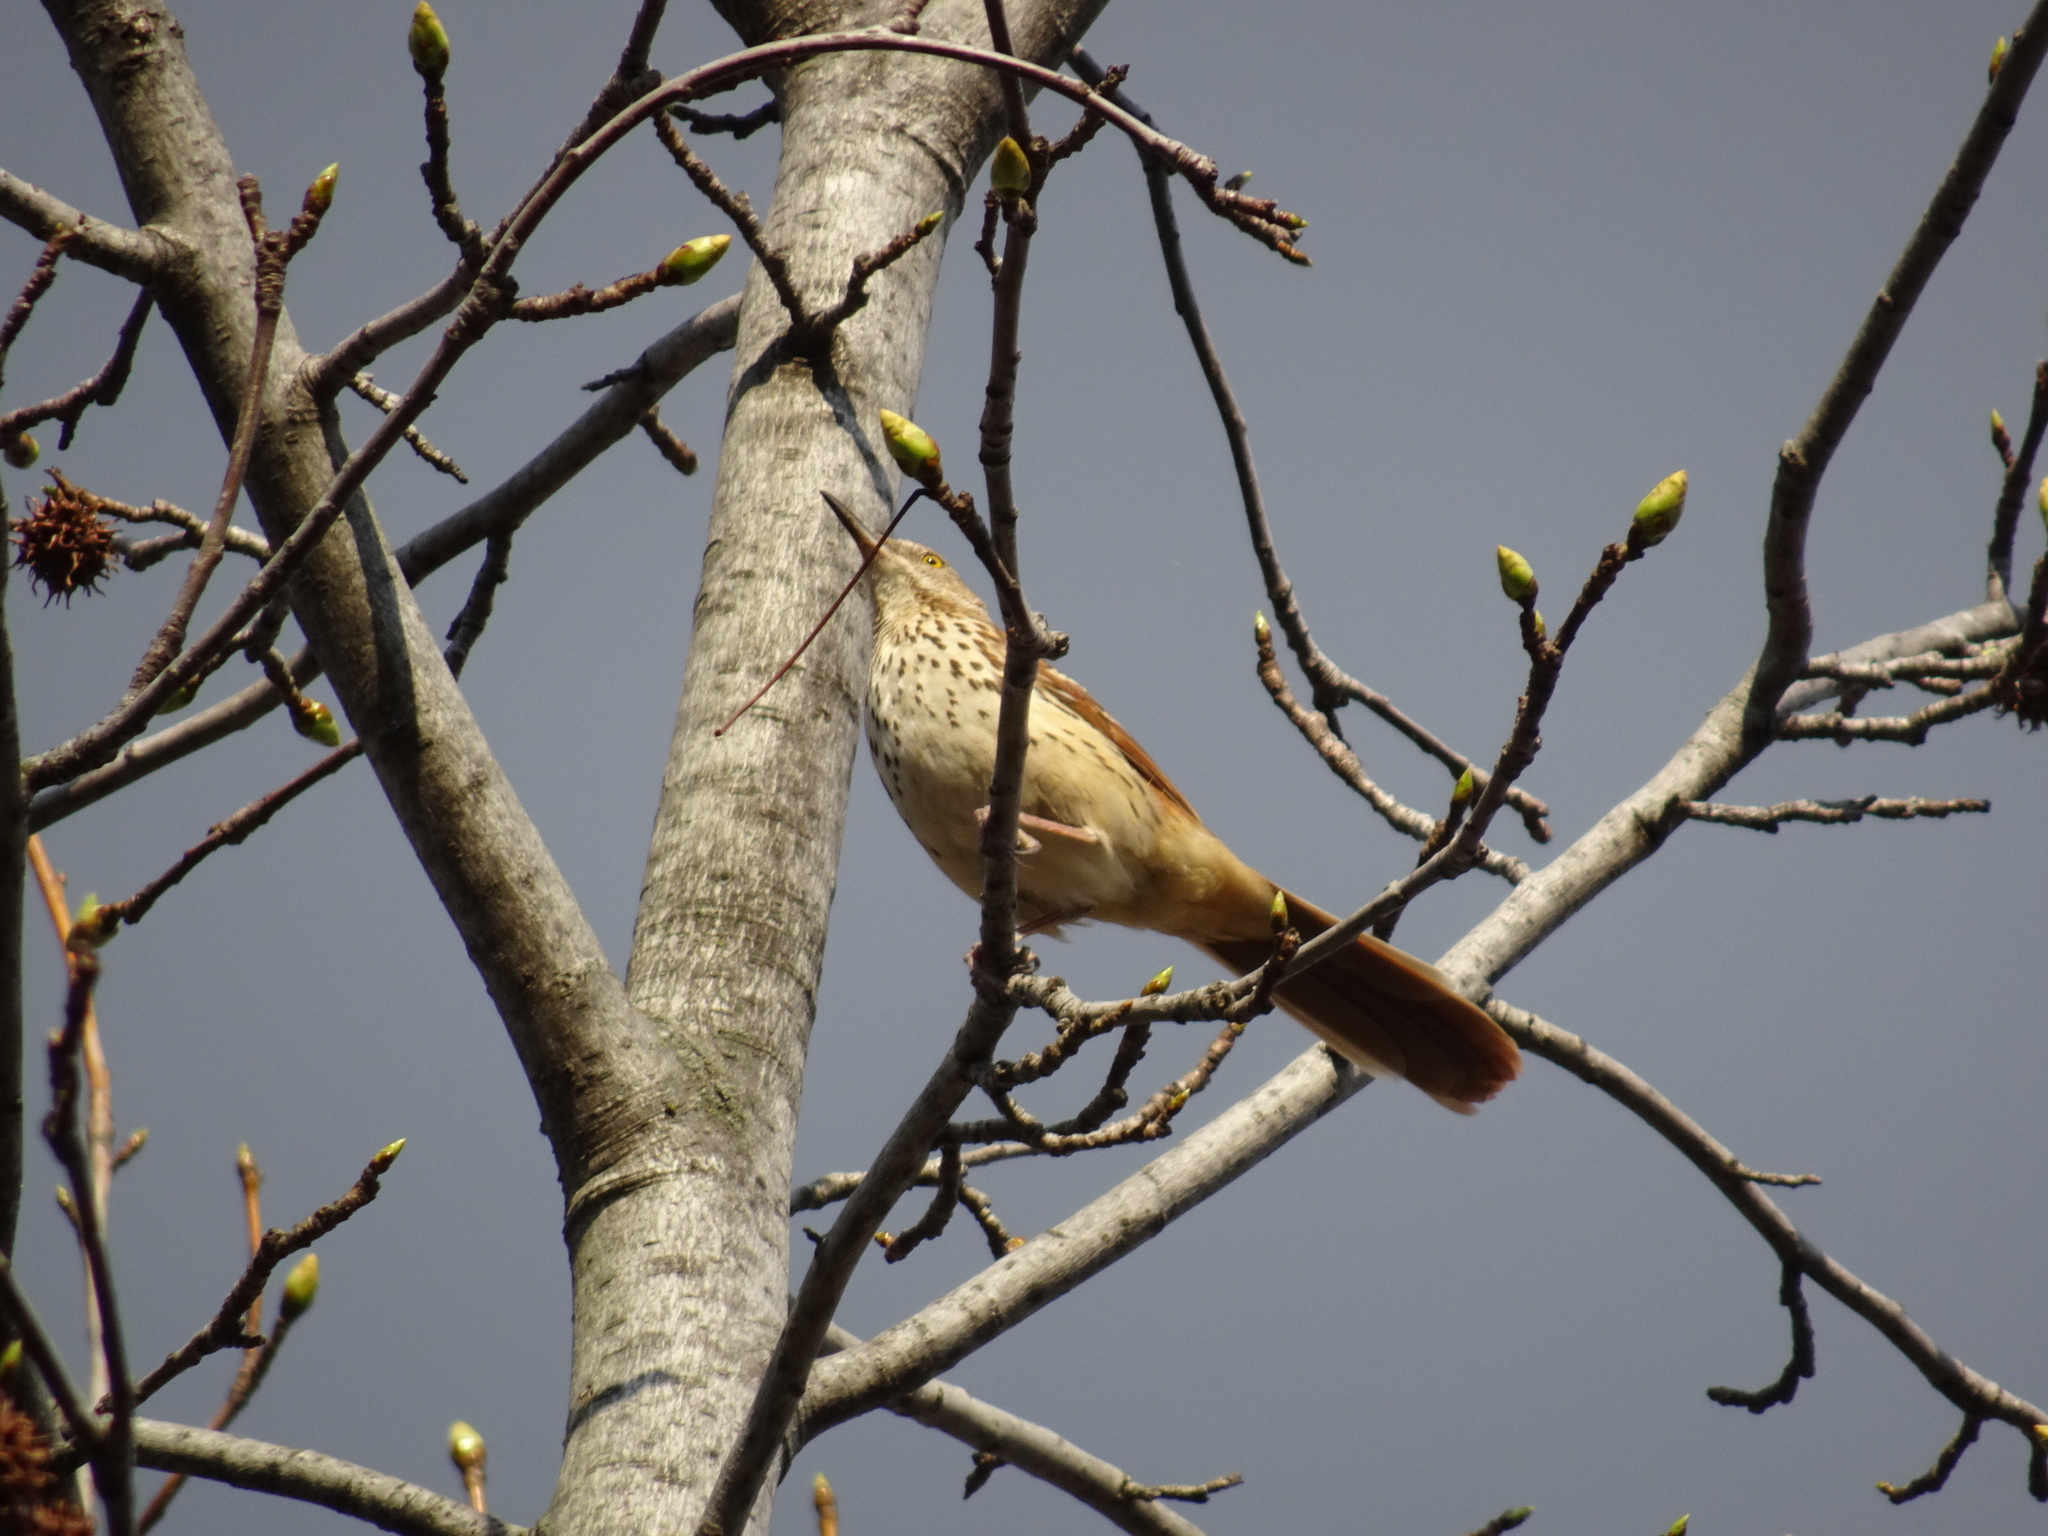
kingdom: Animalia
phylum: Chordata
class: Aves
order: Passeriformes
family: Mimidae
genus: Toxostoma
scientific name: Toxostoma rufum
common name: Brown thrasher
